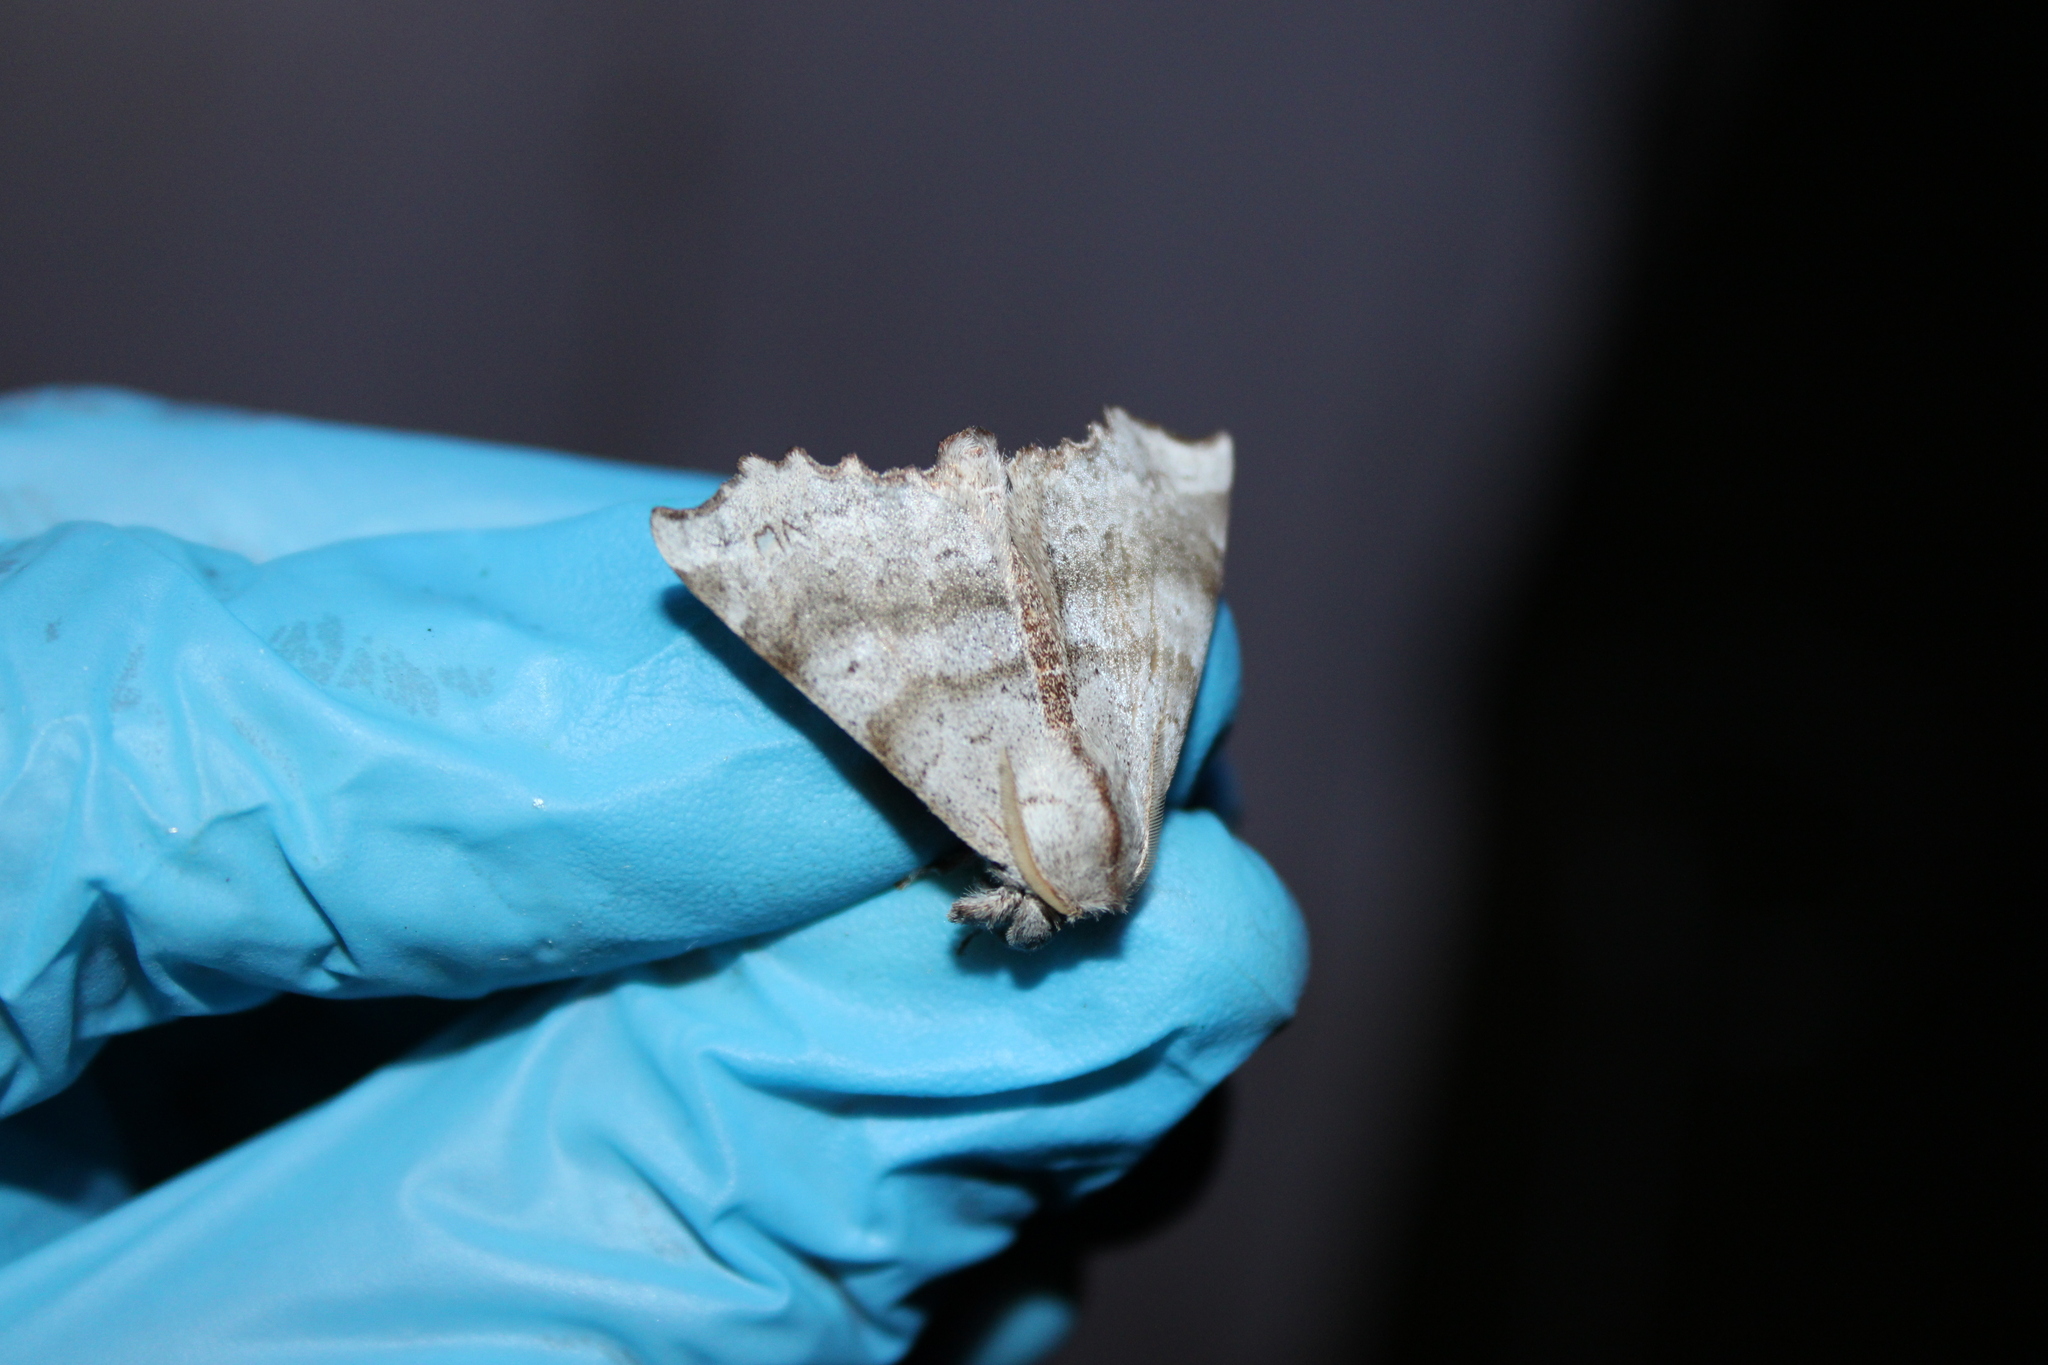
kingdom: Animalia
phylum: Arthropoda
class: Insecta
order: Lepidoptera
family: Apatelodidae
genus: Olceclostera
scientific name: Olceclostera angelica
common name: Angel moth
